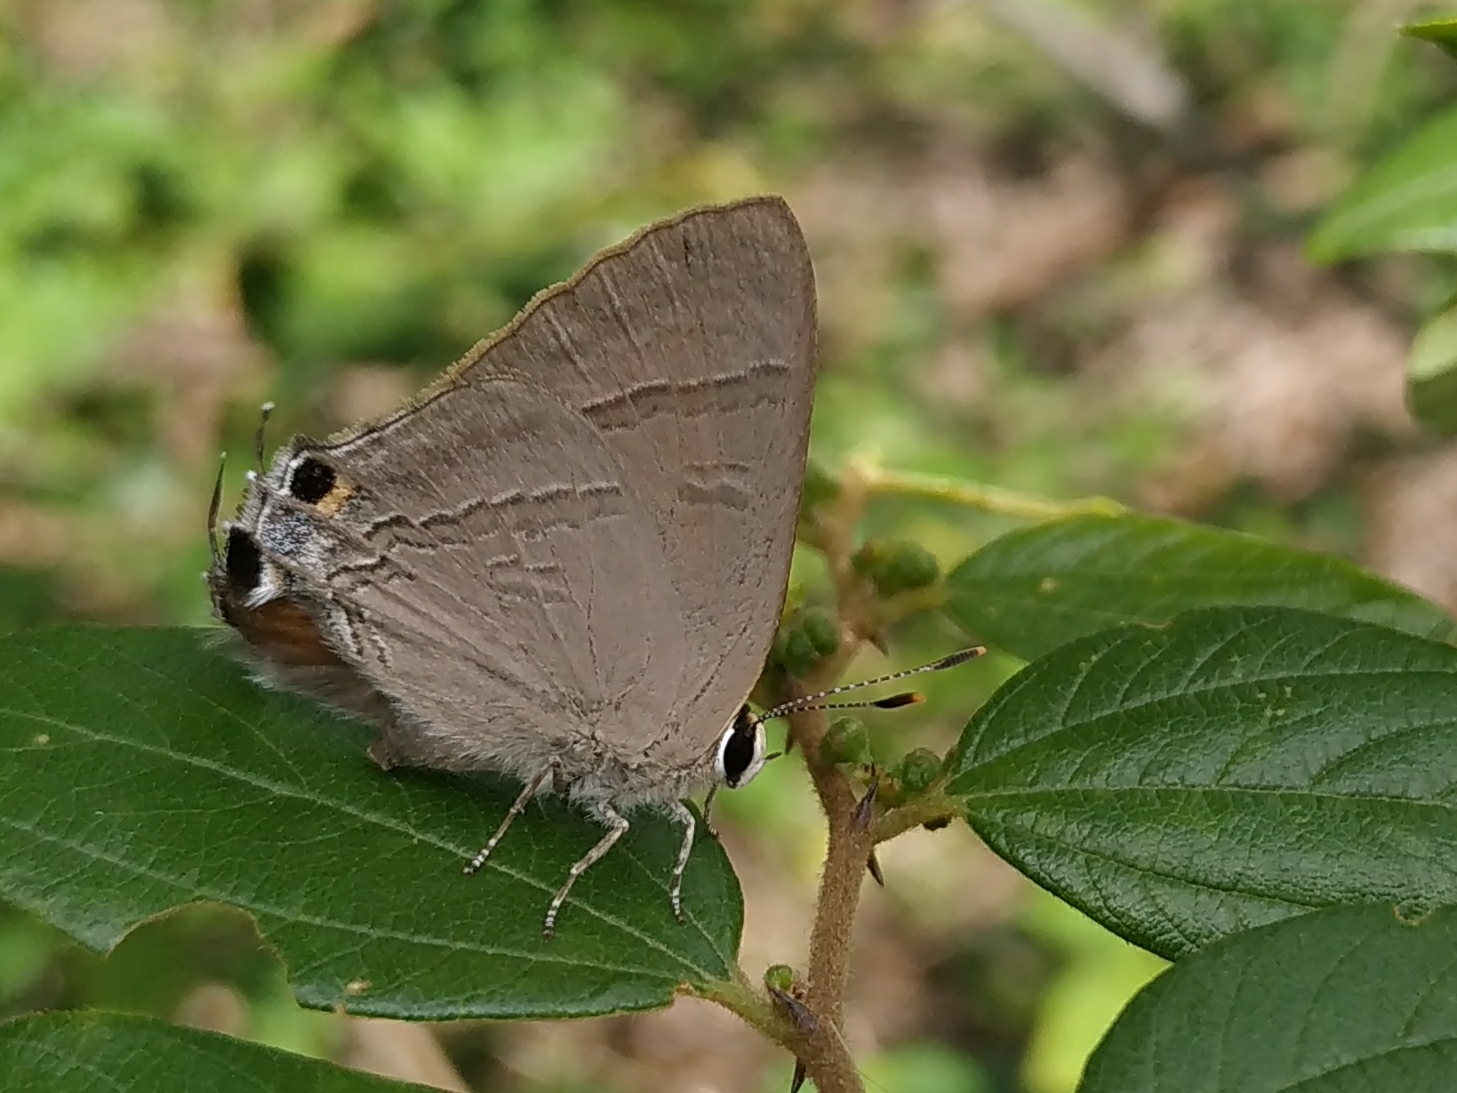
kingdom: Animalia
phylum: Arthropoda
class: Insecta
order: Lepidoptera
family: Lycaenidae
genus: Rapala
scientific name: Rapala iarbus
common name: Common red flash
